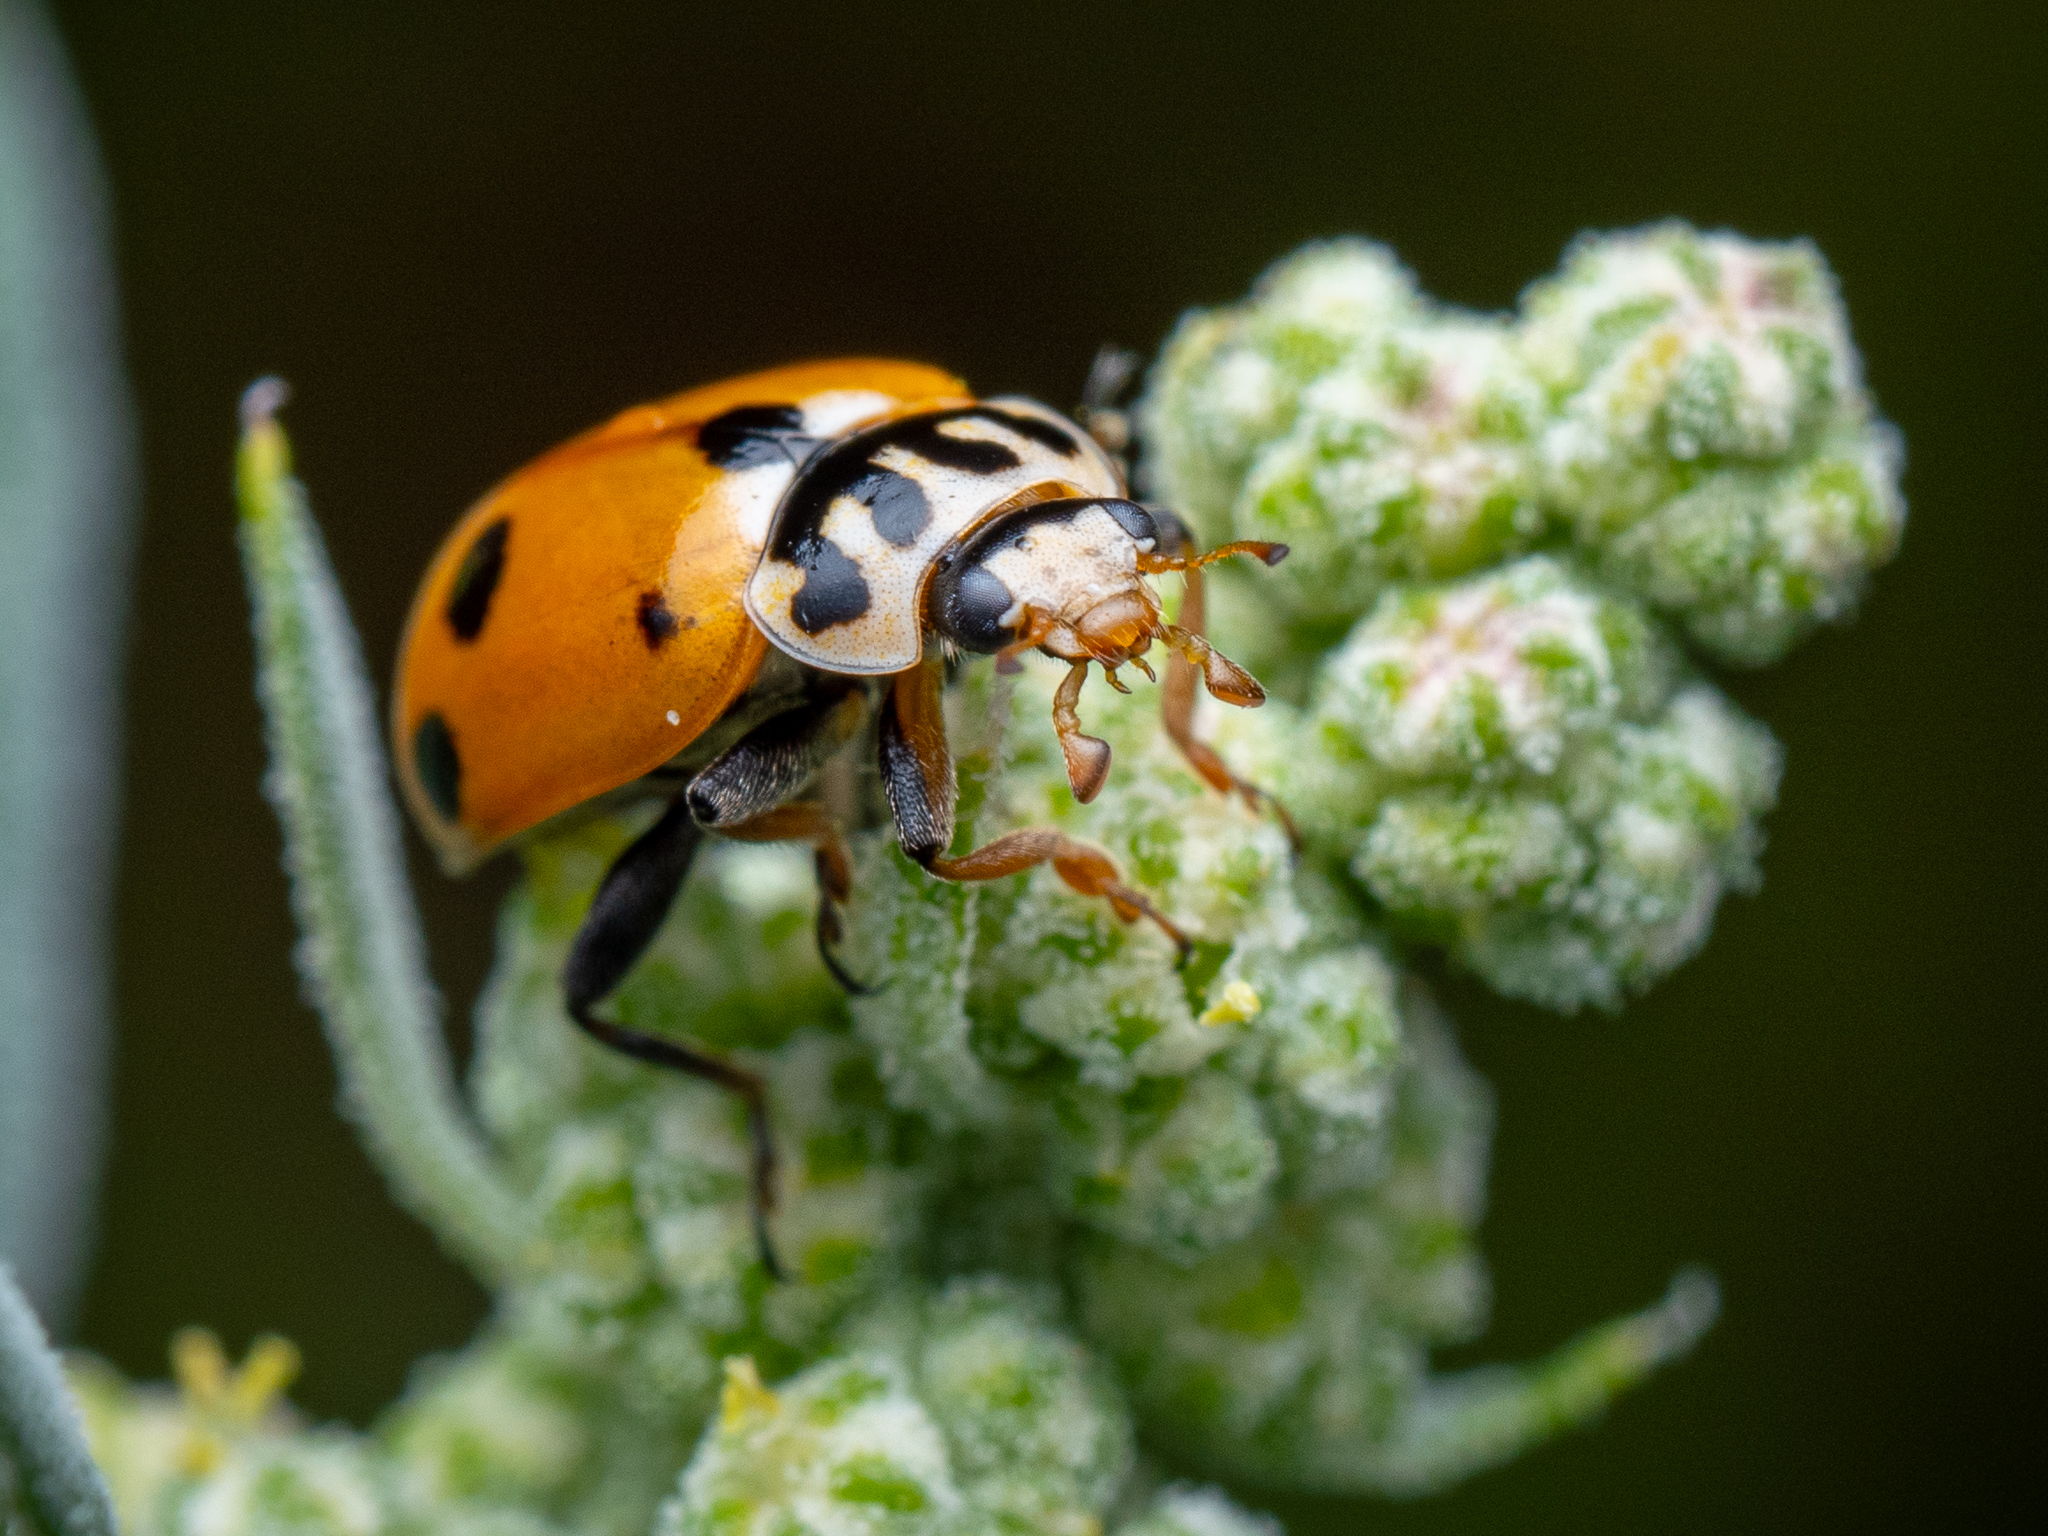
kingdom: Animalia
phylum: Arthropoda
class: Insecta
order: Coleoptera
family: Coccinellidae
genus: Hippodamia
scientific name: Hippodamia variegata
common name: Ladybird beetle
